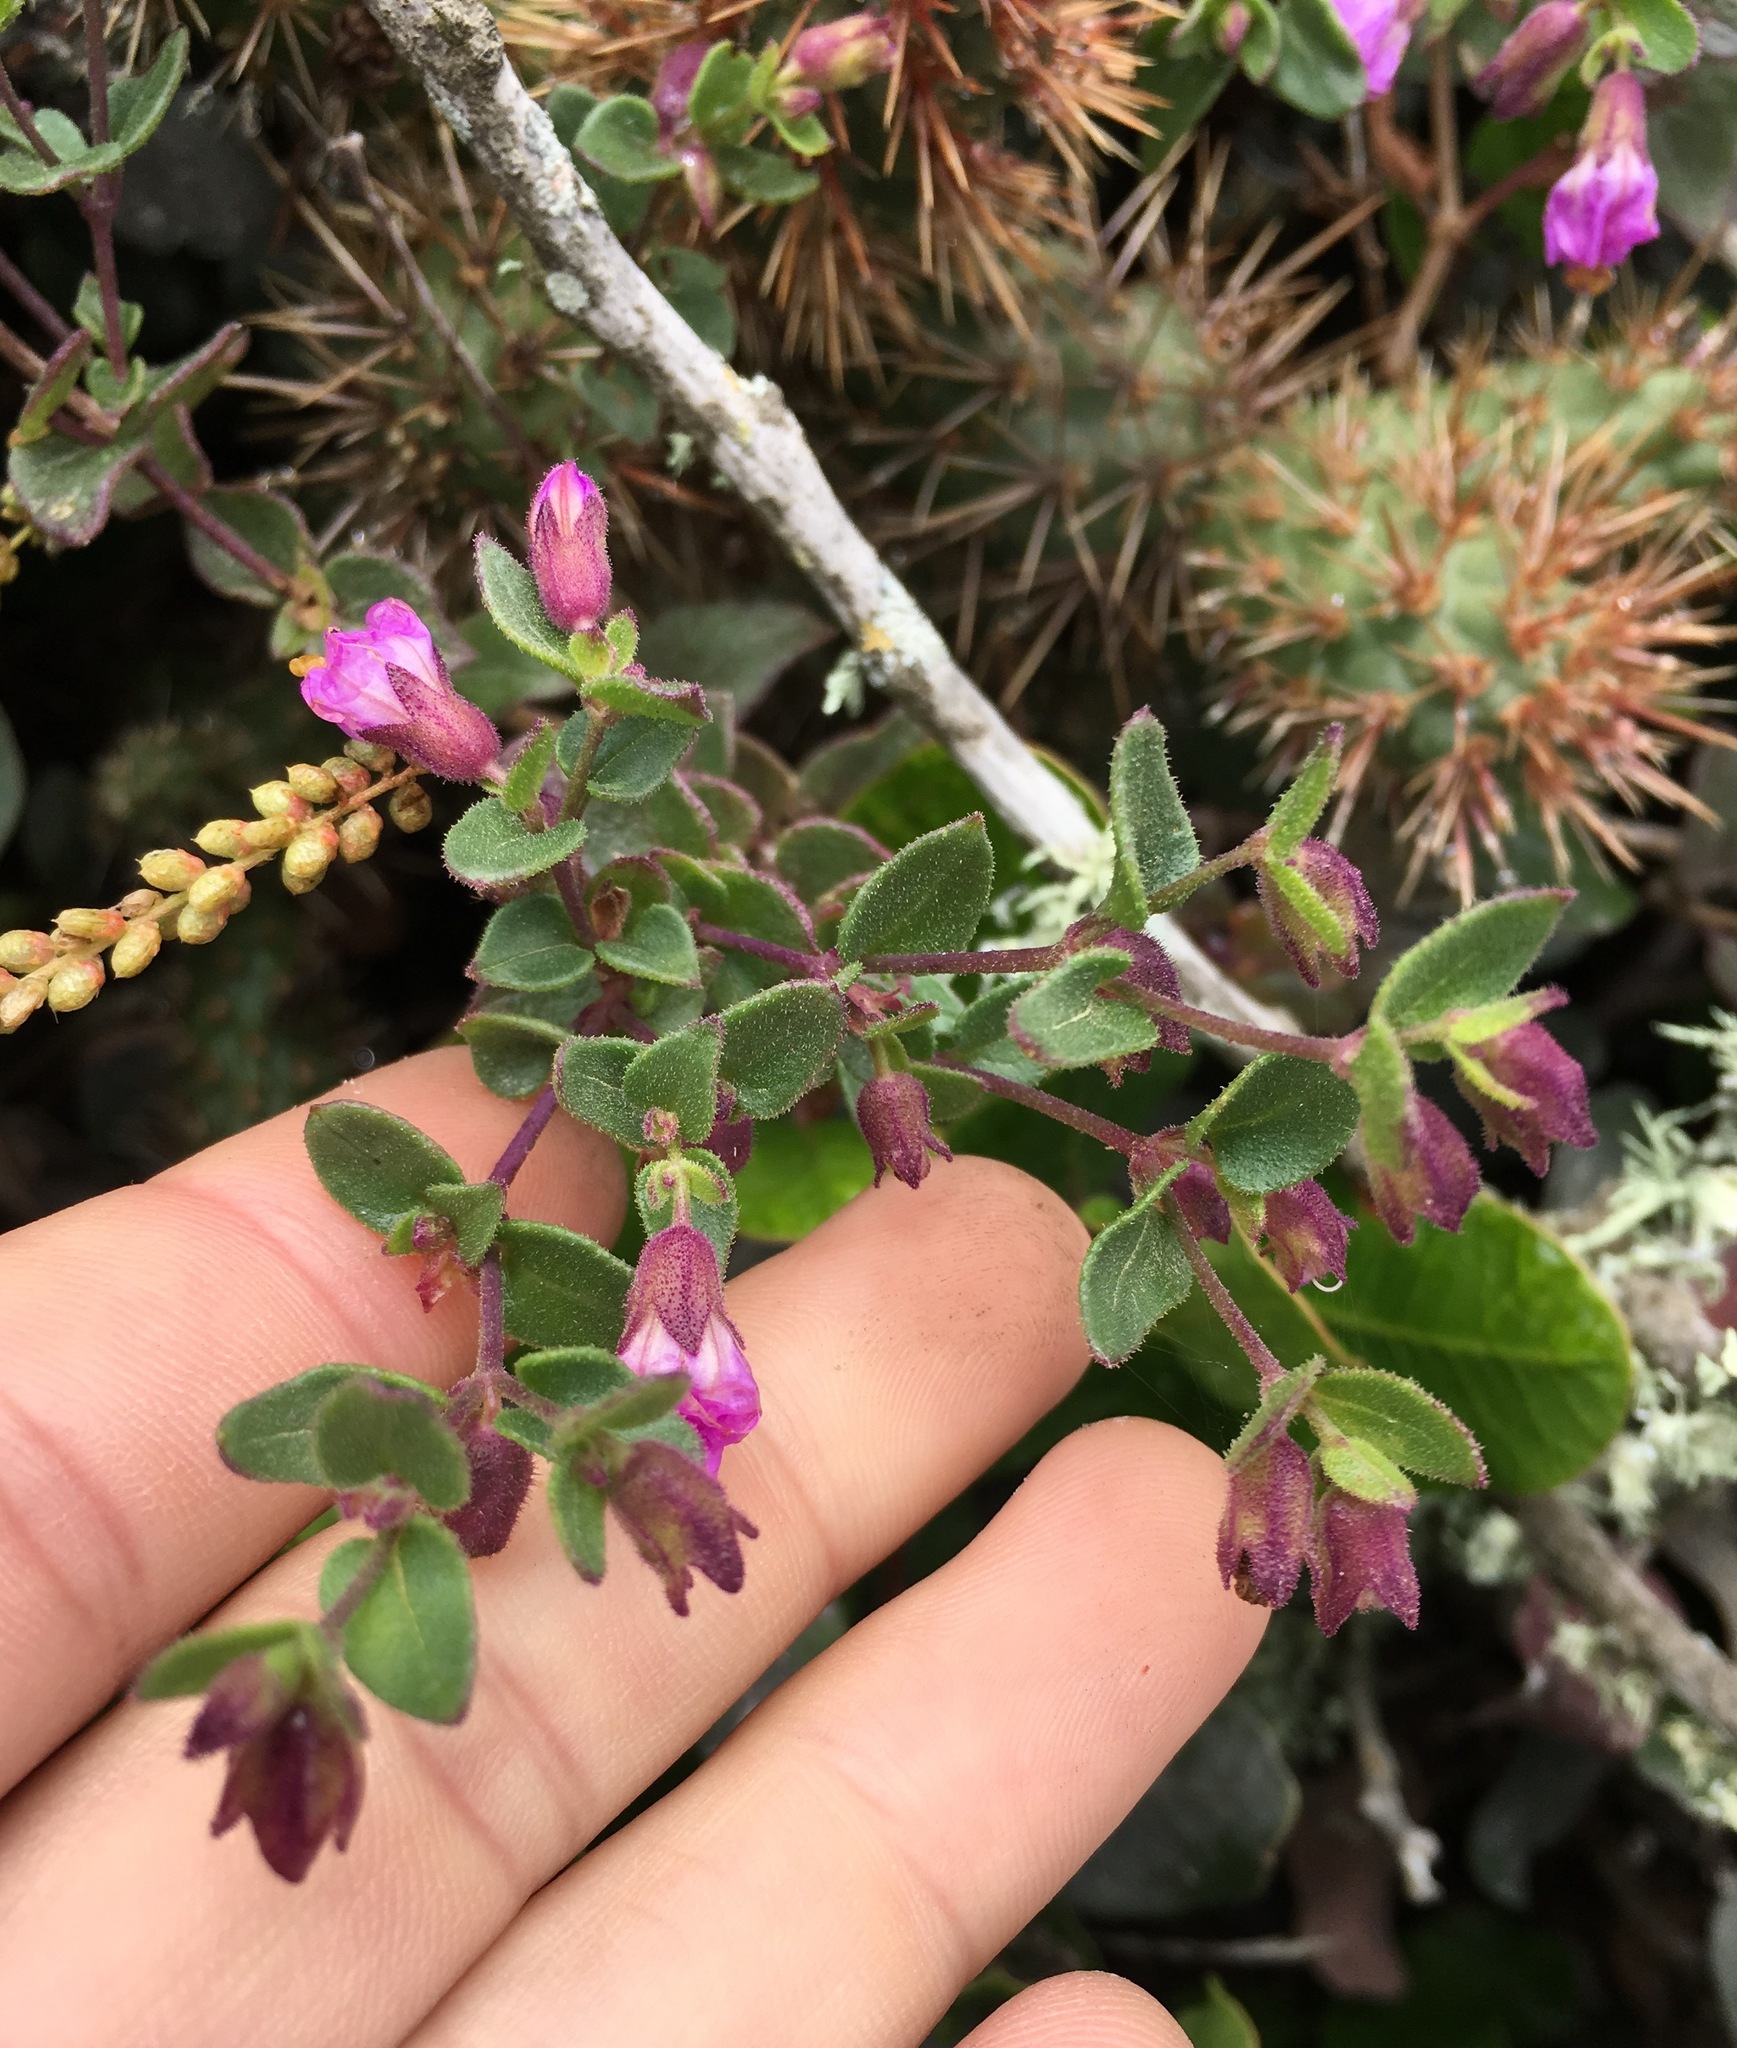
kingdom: Plantae
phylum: Tracheophyta
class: Magnoliopsida
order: Caryophyllales
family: Nyctaginaceae
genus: Mirabilis
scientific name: Mirabilis laevis
